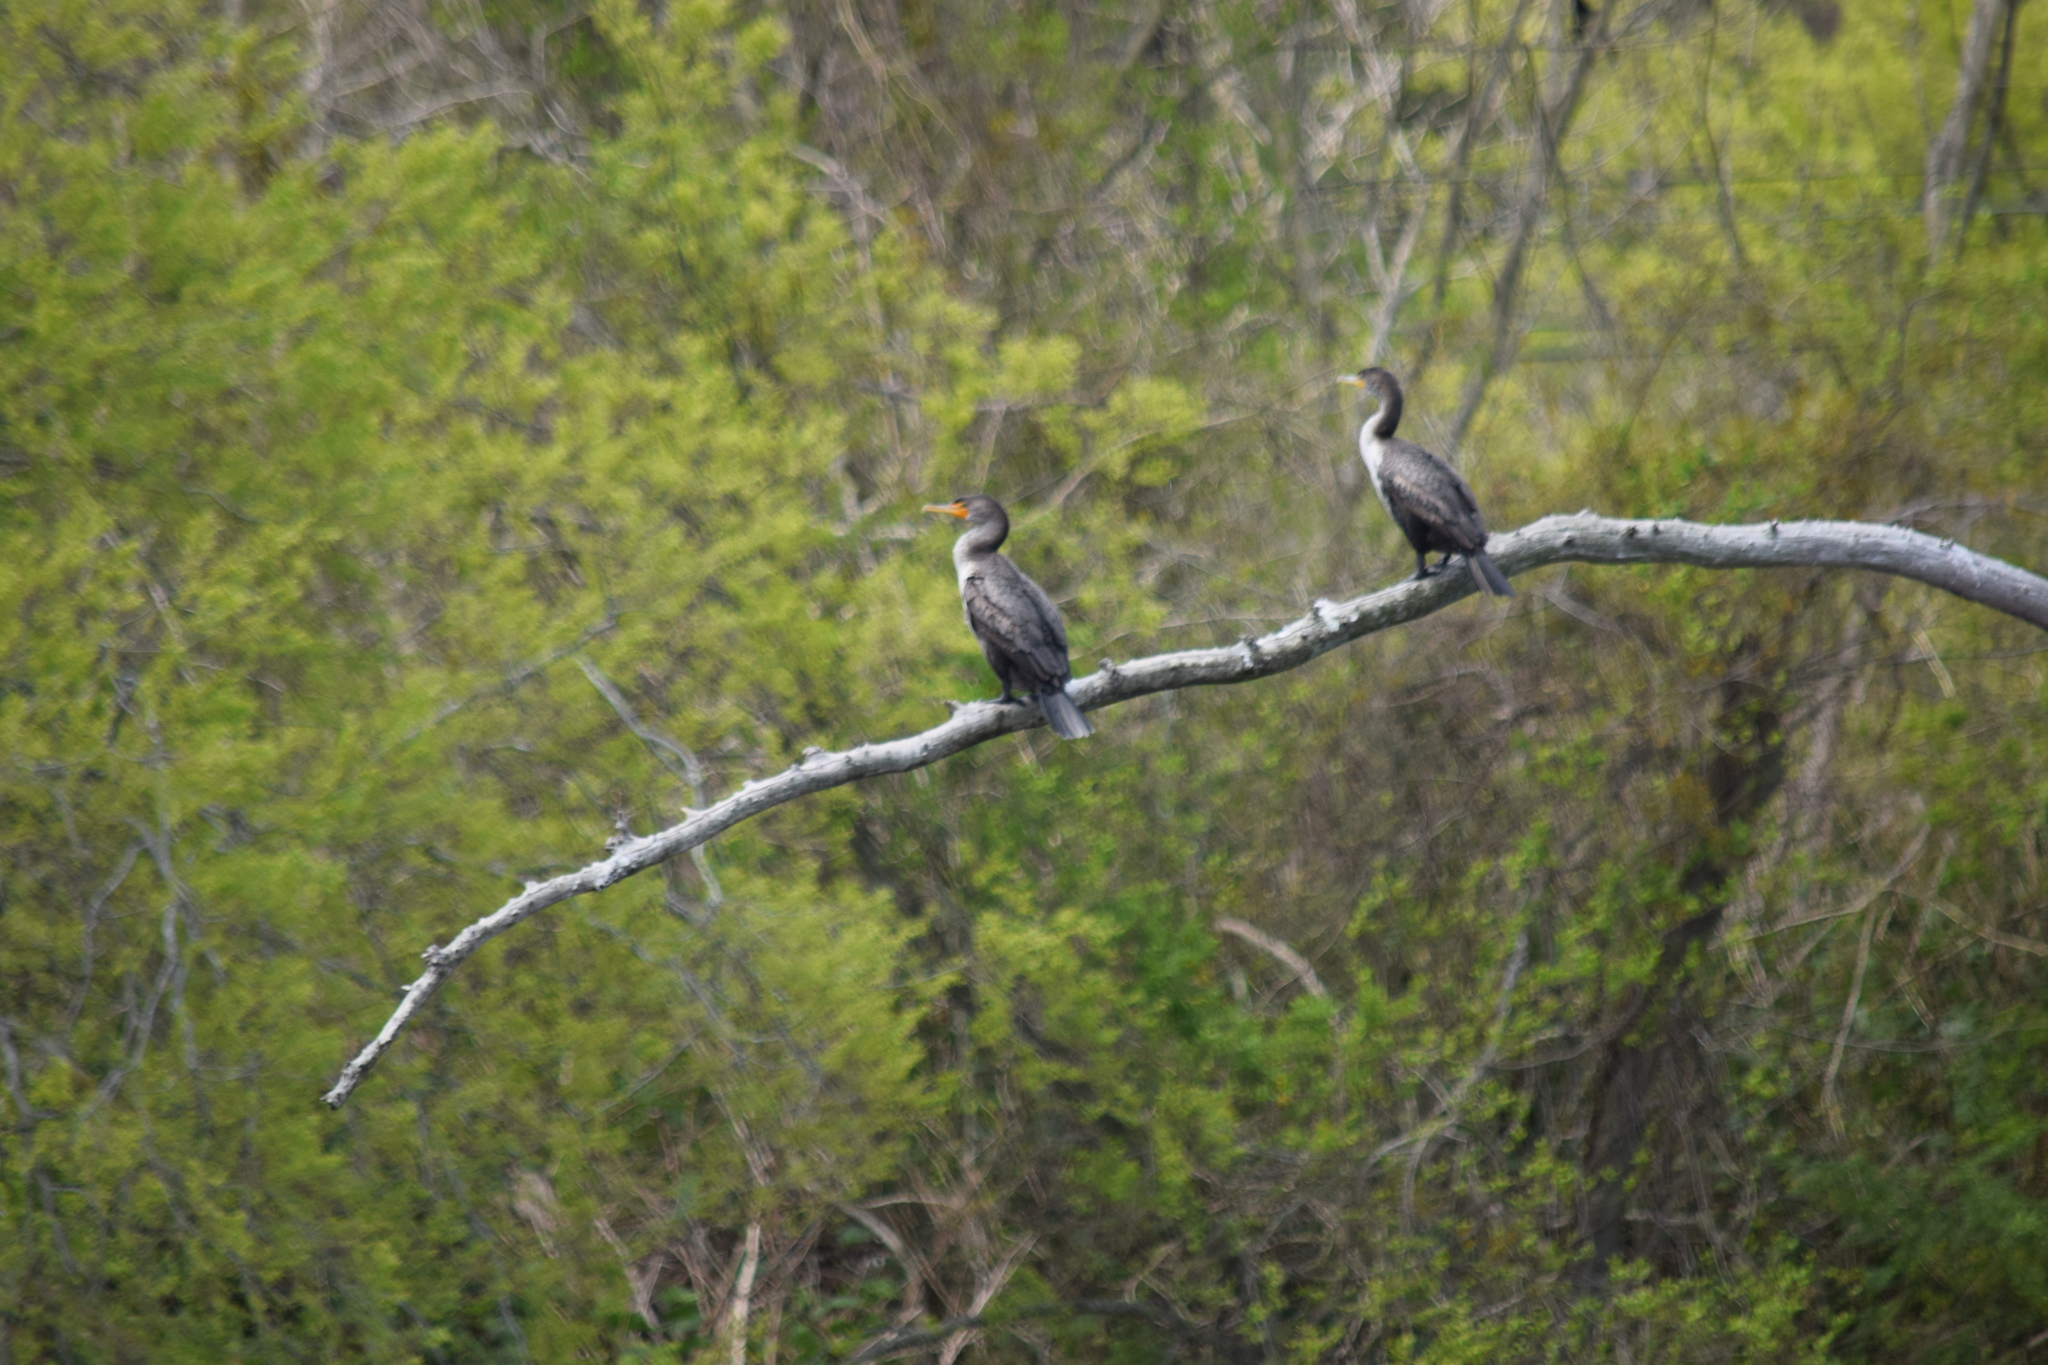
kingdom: Animalia
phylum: Chordata
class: Aves
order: Suliformes
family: Phalacrocoracidae
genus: Phalacrocorax
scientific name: Phalacrocorax auritus
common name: Double-crested cormorant
